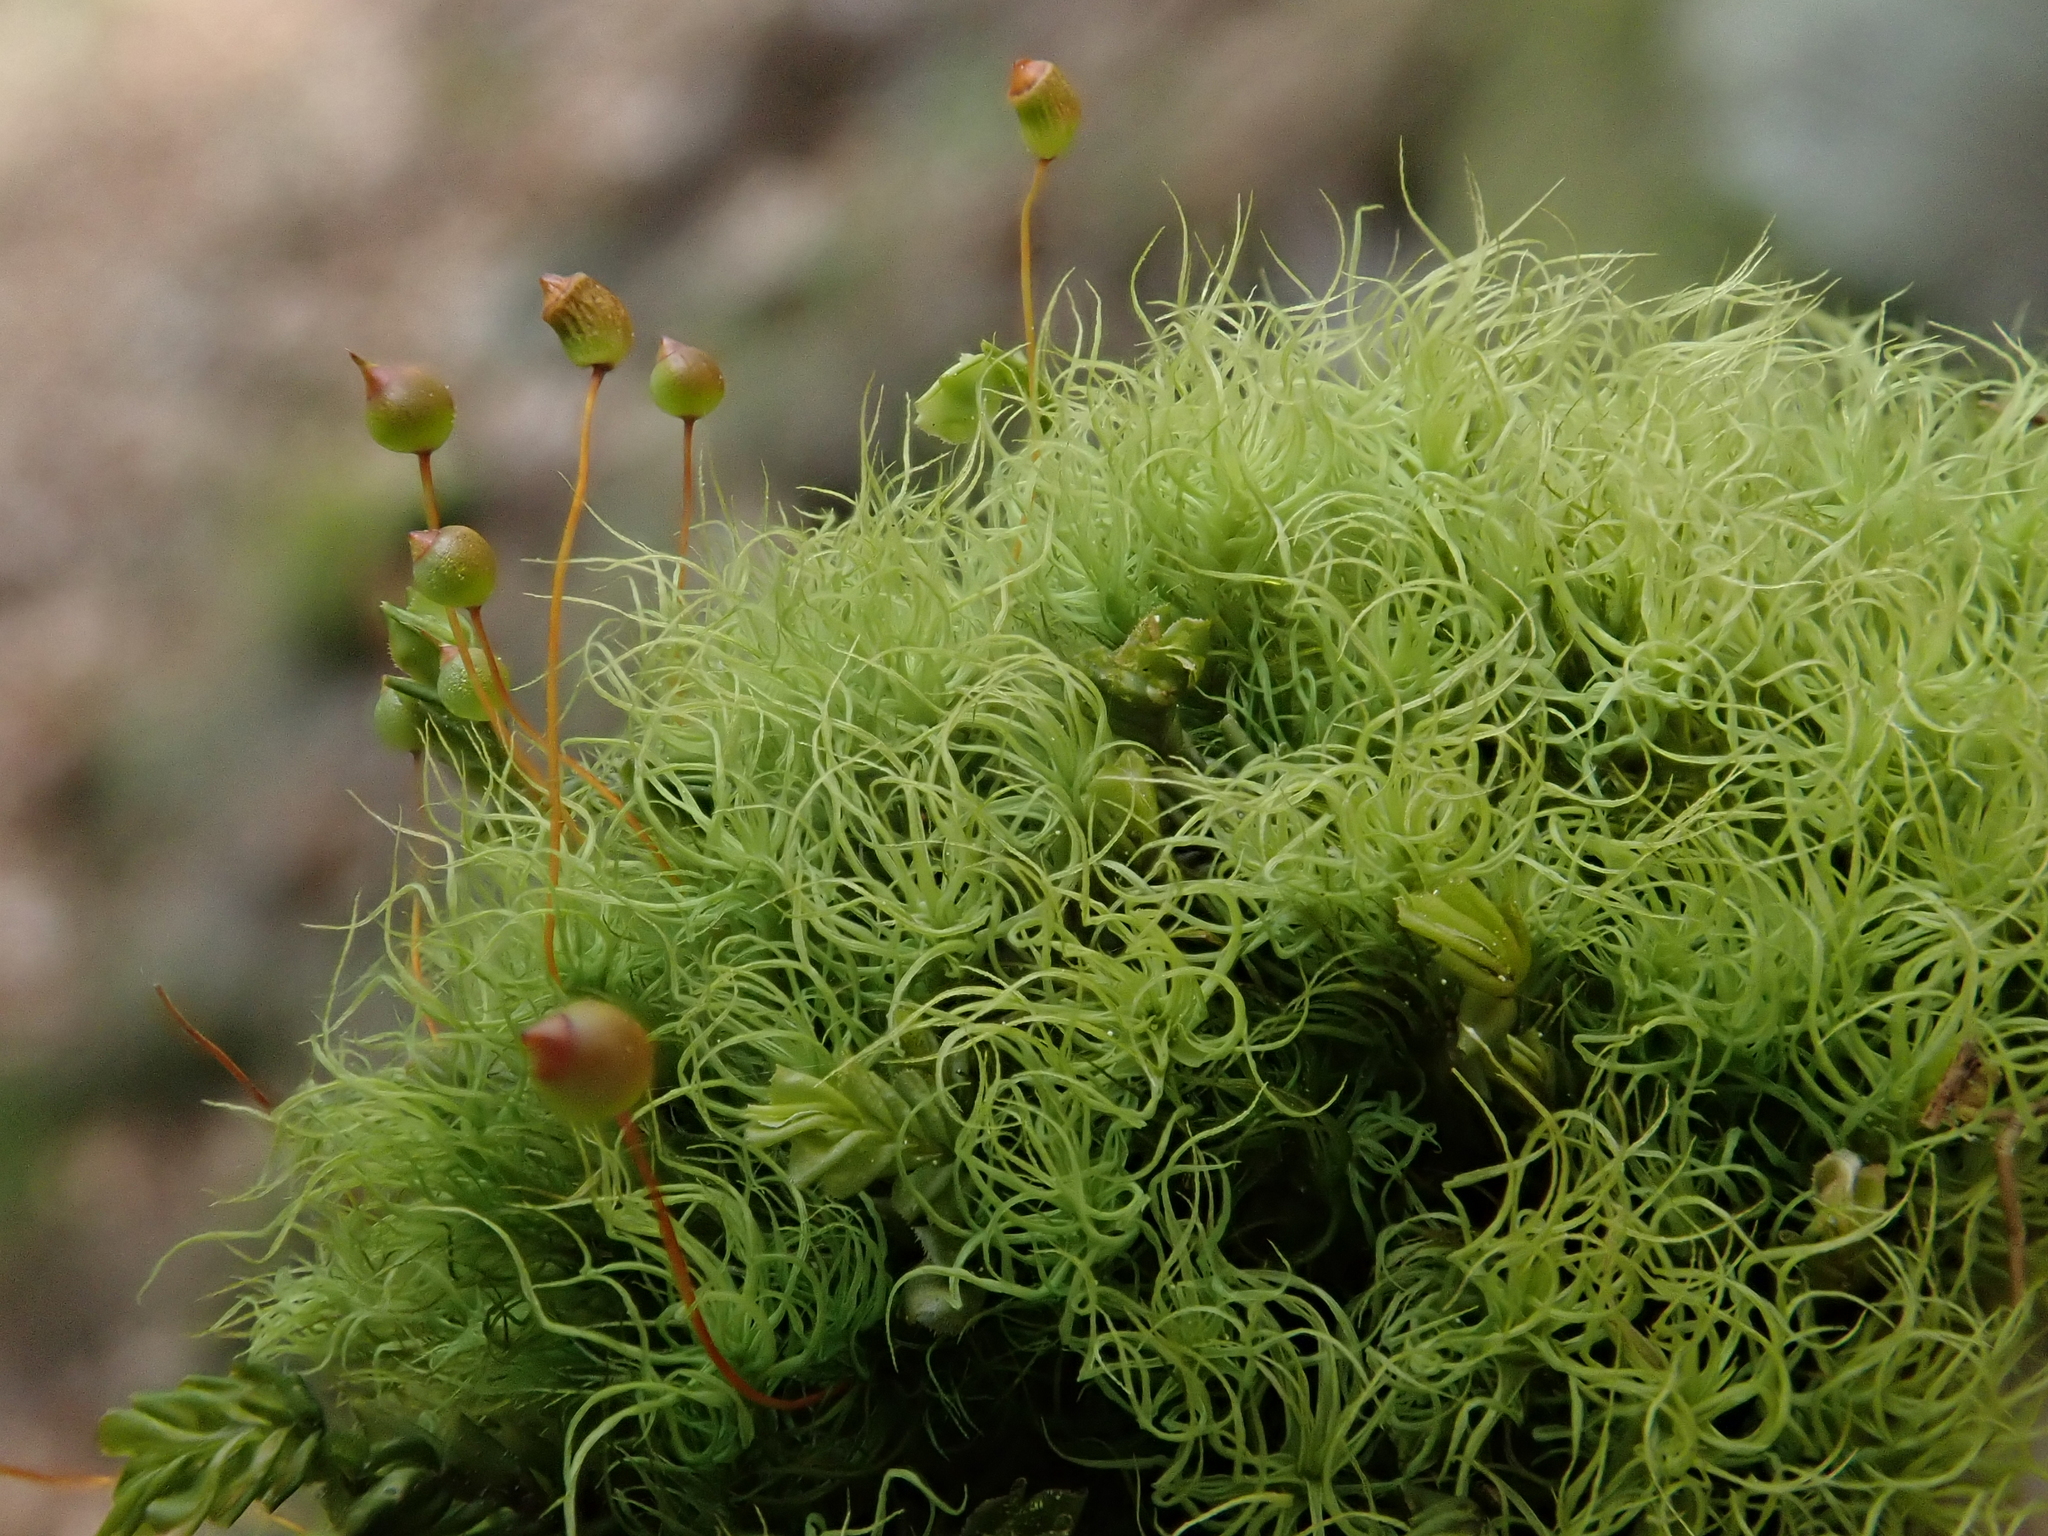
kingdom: Plantae
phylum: Bryophyta
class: Bryopsida
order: Bartramiales
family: Bartramiaceae
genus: Bartramia
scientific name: Bartramia ithyphylla
